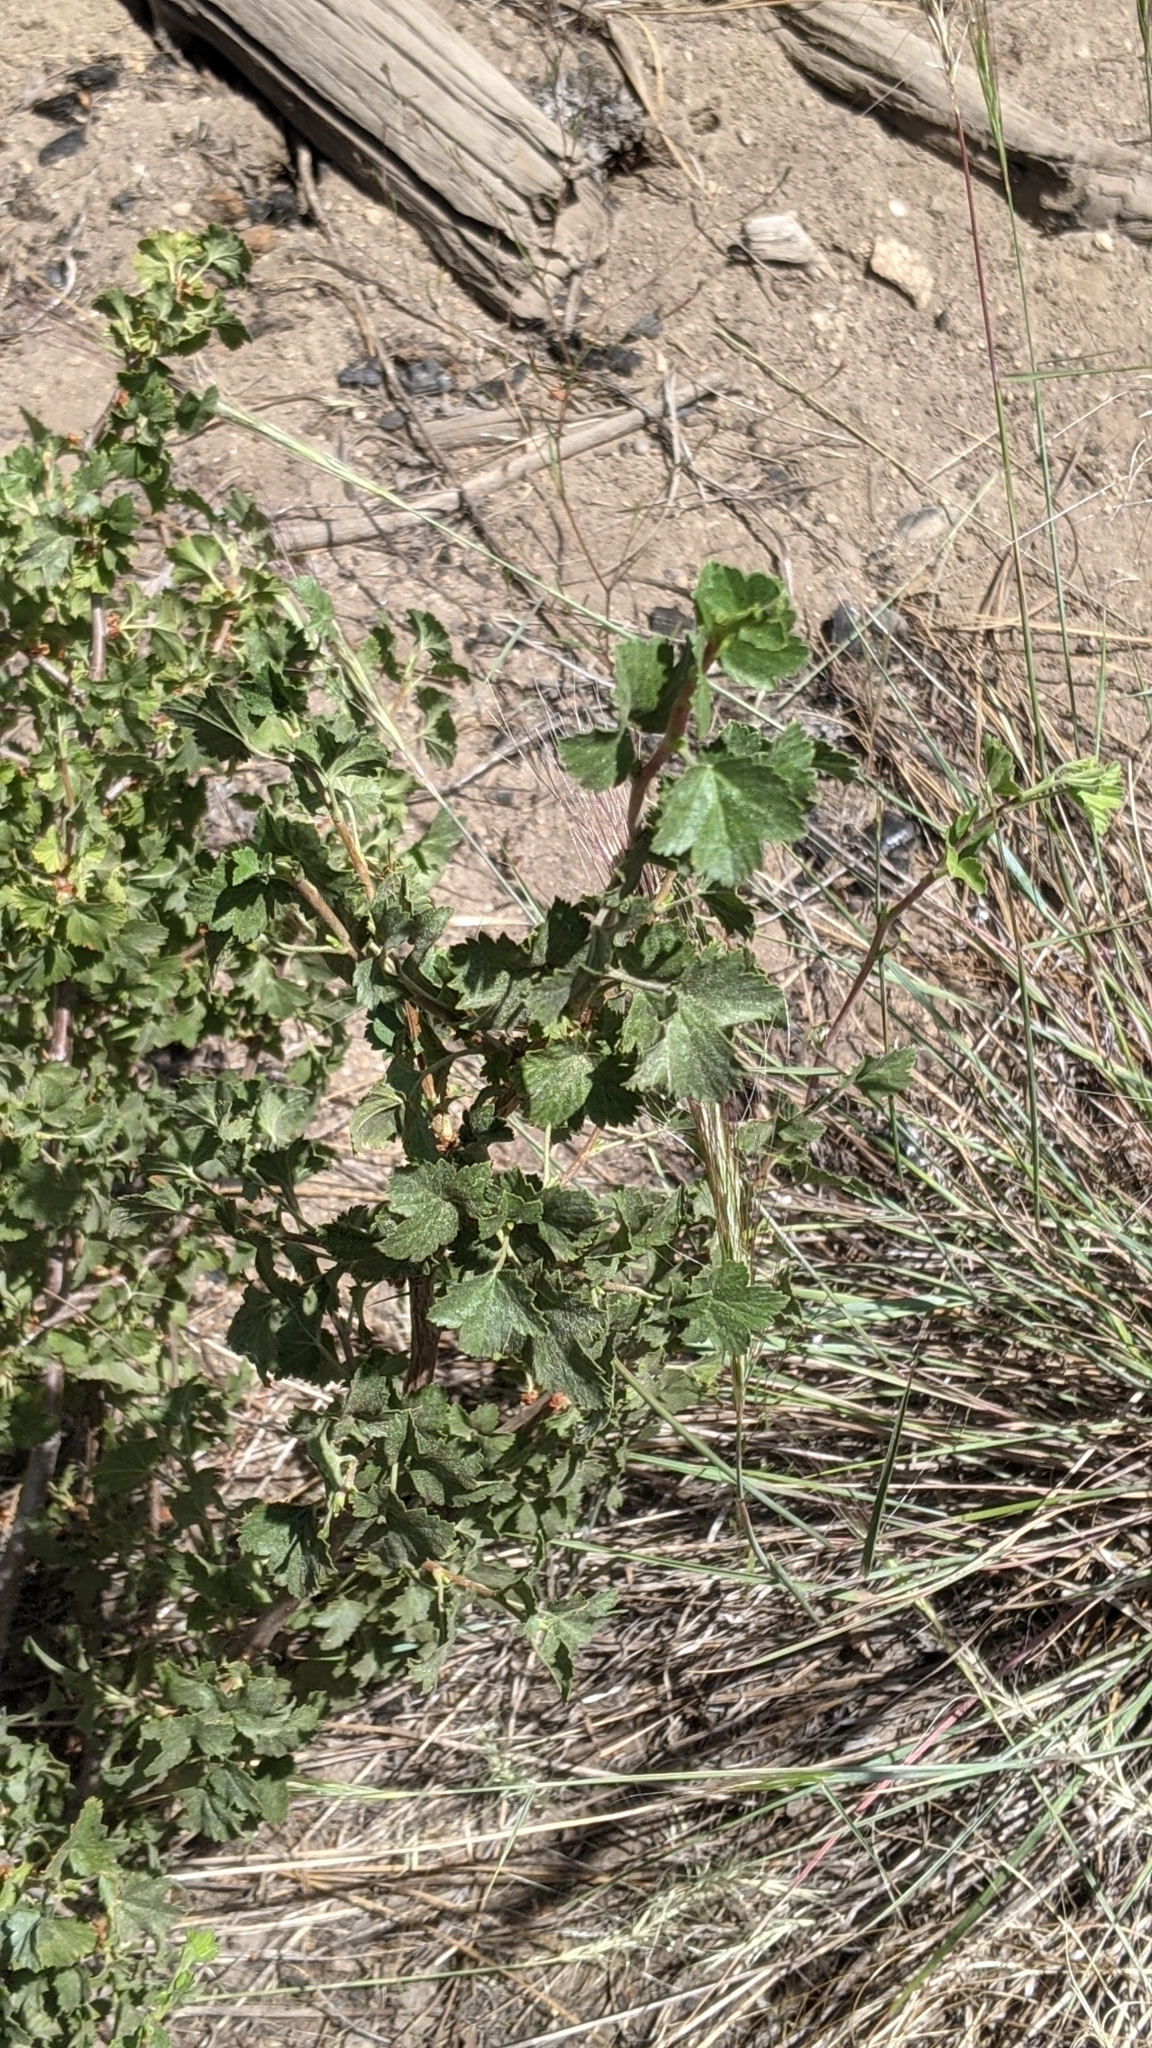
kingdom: Plantae
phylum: Tracheophyta
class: Magnoliopsida
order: Saxifragales
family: Grossulariaceae
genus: Ribes
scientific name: Ribes cereum
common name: Wax currant
